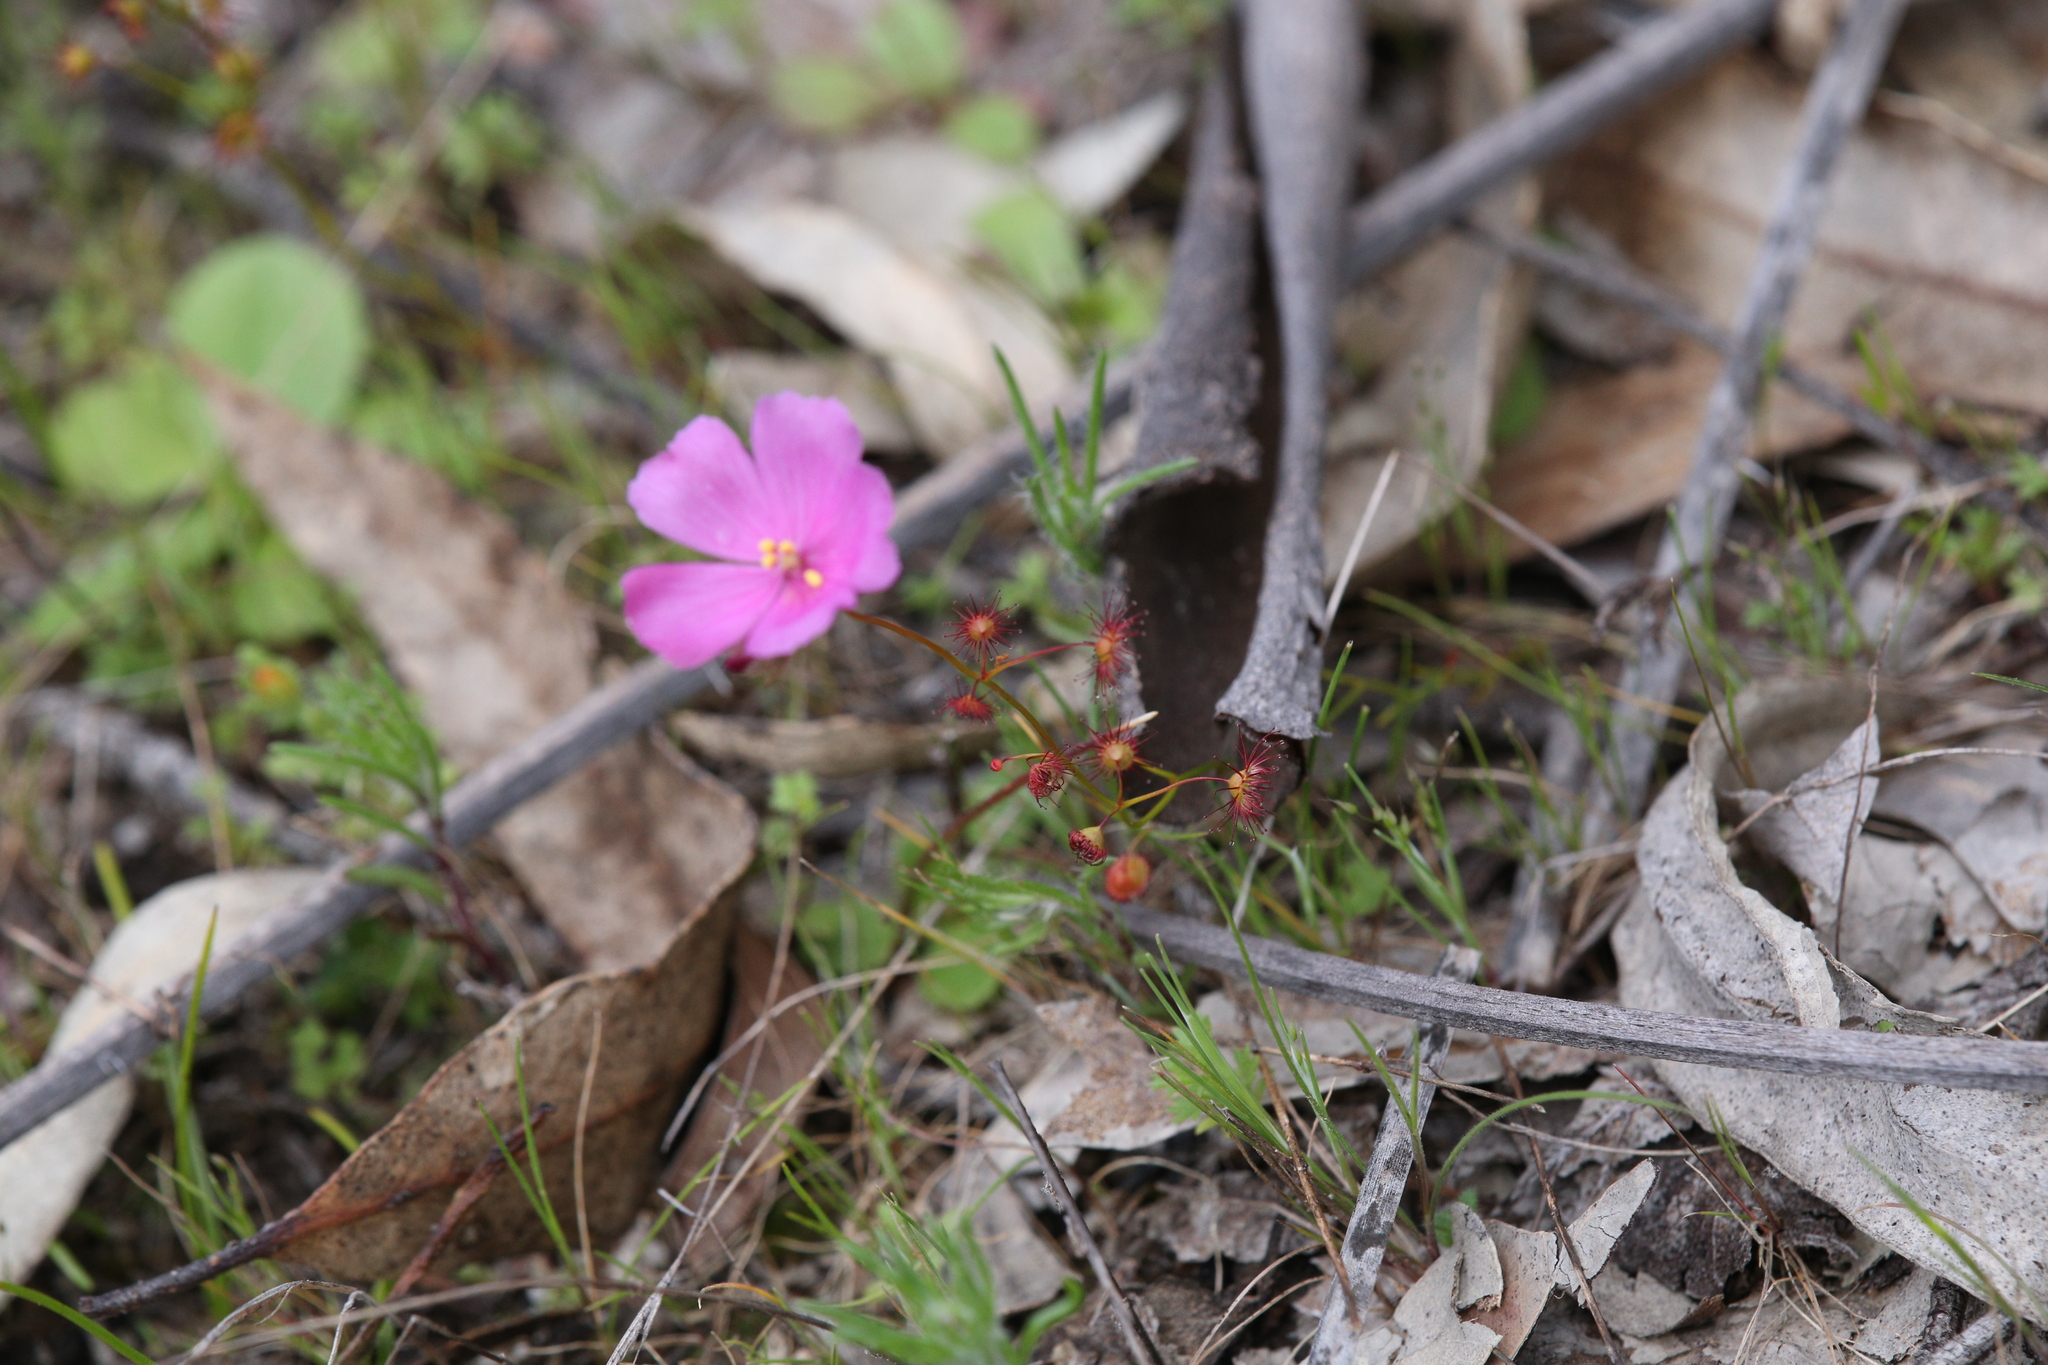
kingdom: Plantae
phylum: Tracheophyta
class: Magnoliopsida
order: Caryophyllales
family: Droseraceae
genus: Drosera
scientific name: Drosera menziesii
